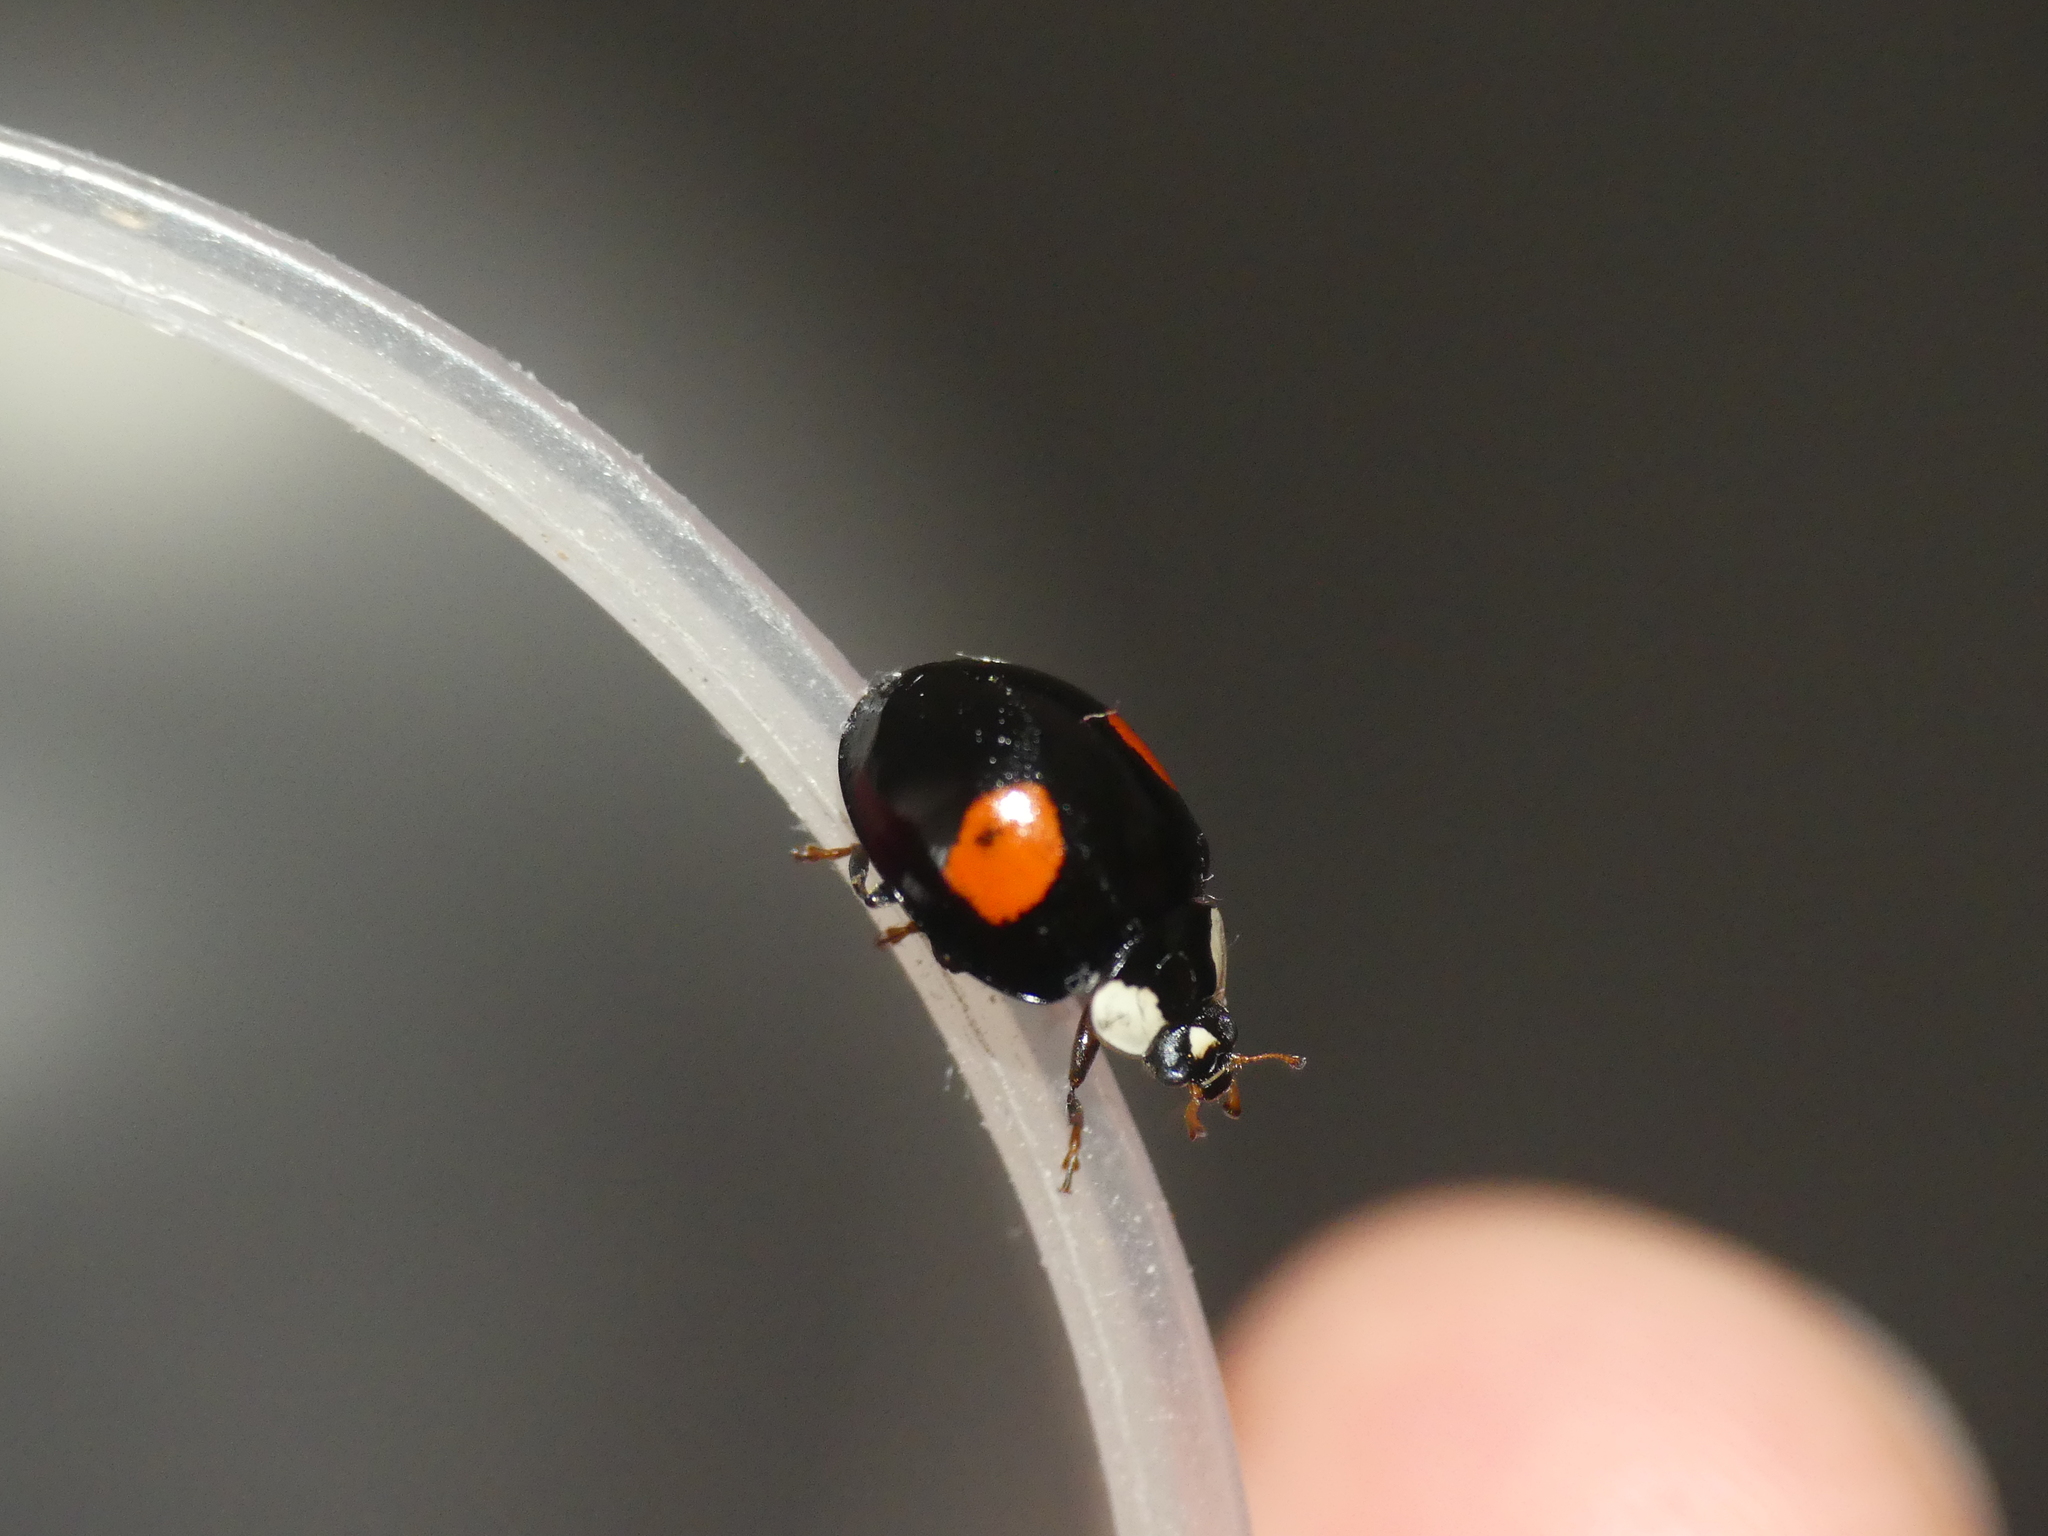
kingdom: Animalia
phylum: Arthropoda
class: Insecta
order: Coleoptera
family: Coccinellidae
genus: Harmonia
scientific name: Harmonia axyridis
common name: Harlequin ladybird
